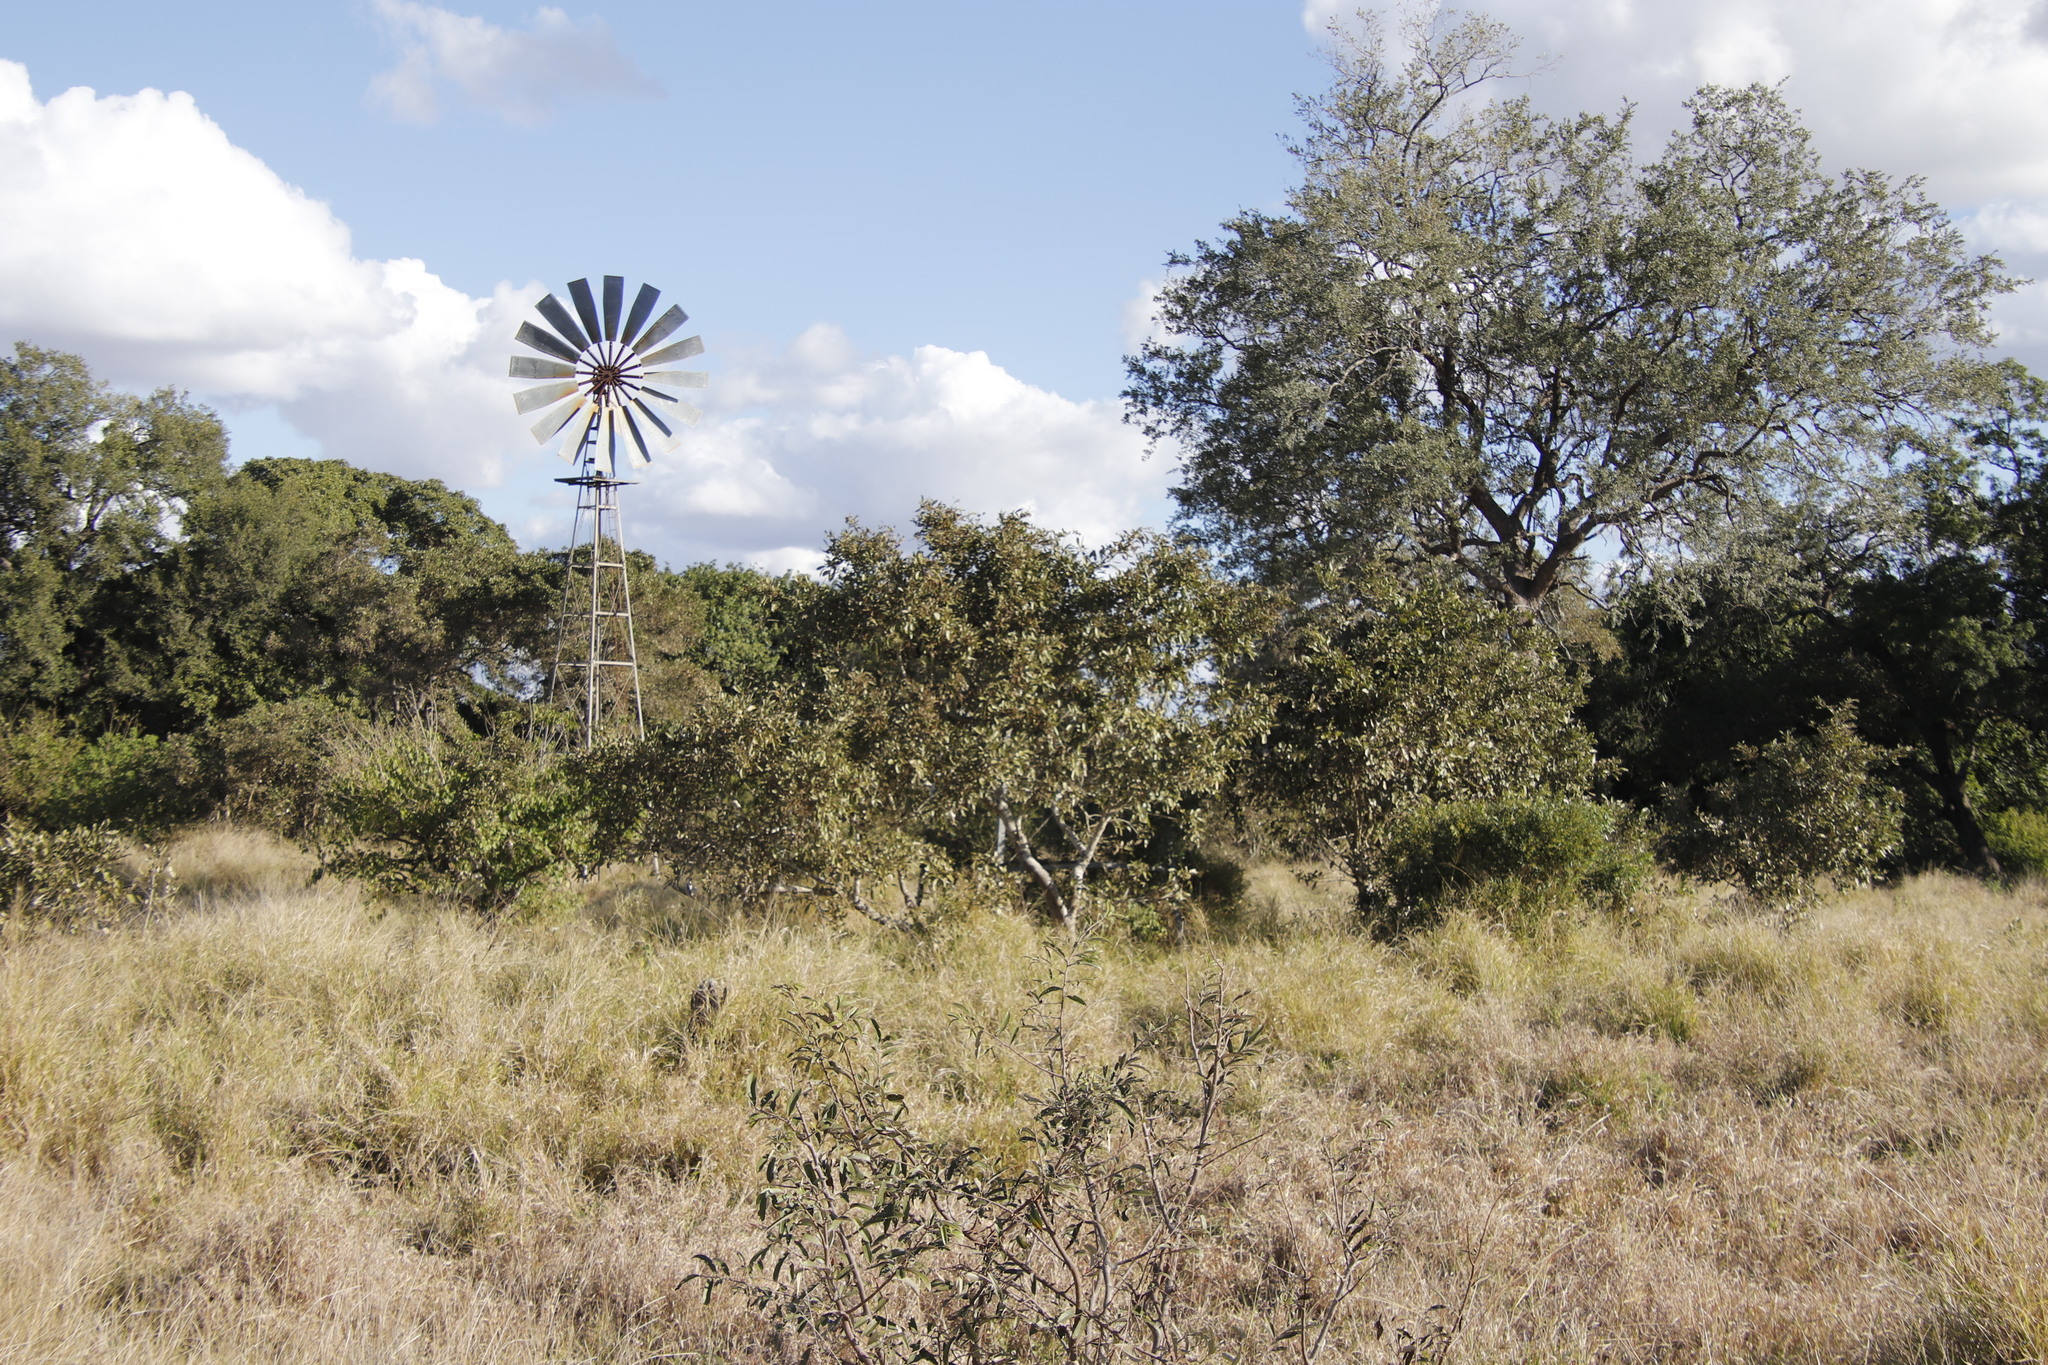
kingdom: Plantae
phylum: Tracheophyta
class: Magnoliopsida
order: Fabales
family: Fabaceae
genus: Philenoptera
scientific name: Philenoptera violacea
